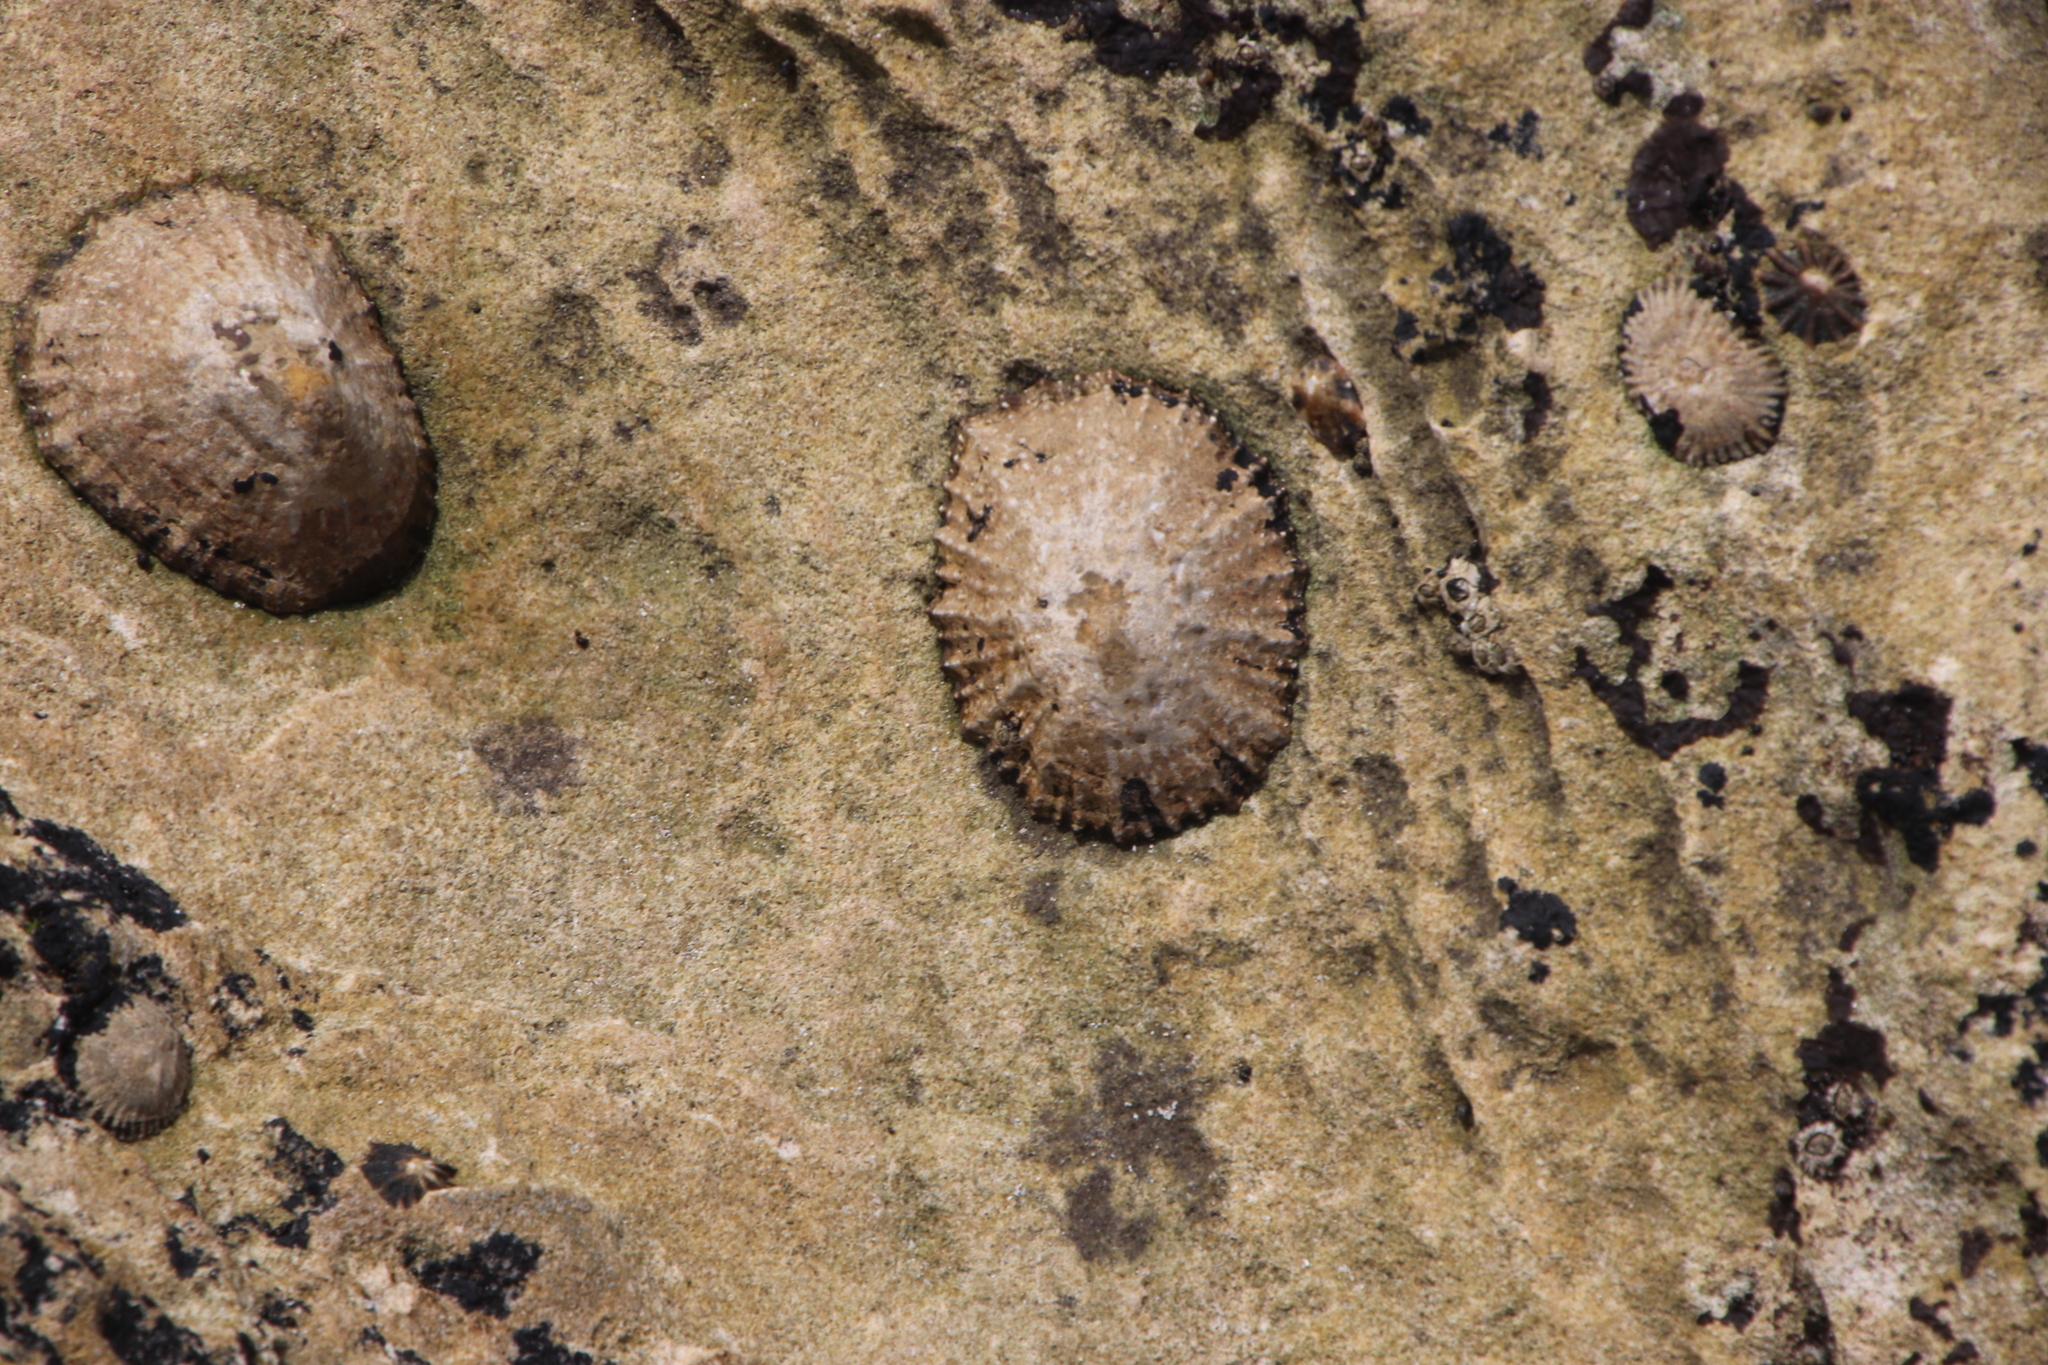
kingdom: Animalia
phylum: Mollusca
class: Gastropoda
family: Patellidae
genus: Scutellastra
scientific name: Scutellastra granularis
